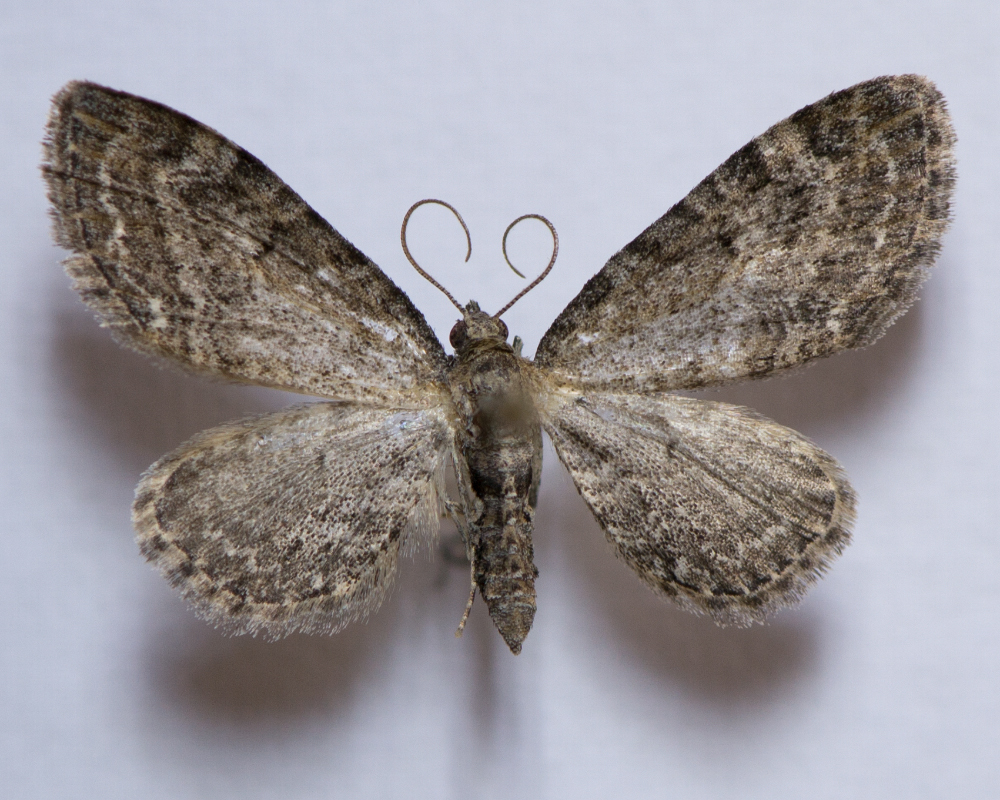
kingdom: Animalia
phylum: Arthropoda
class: Insecta
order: Lepidoptera
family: Geometridae
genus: Eupithecia
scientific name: Eupithecia vulgata
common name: Common pug
